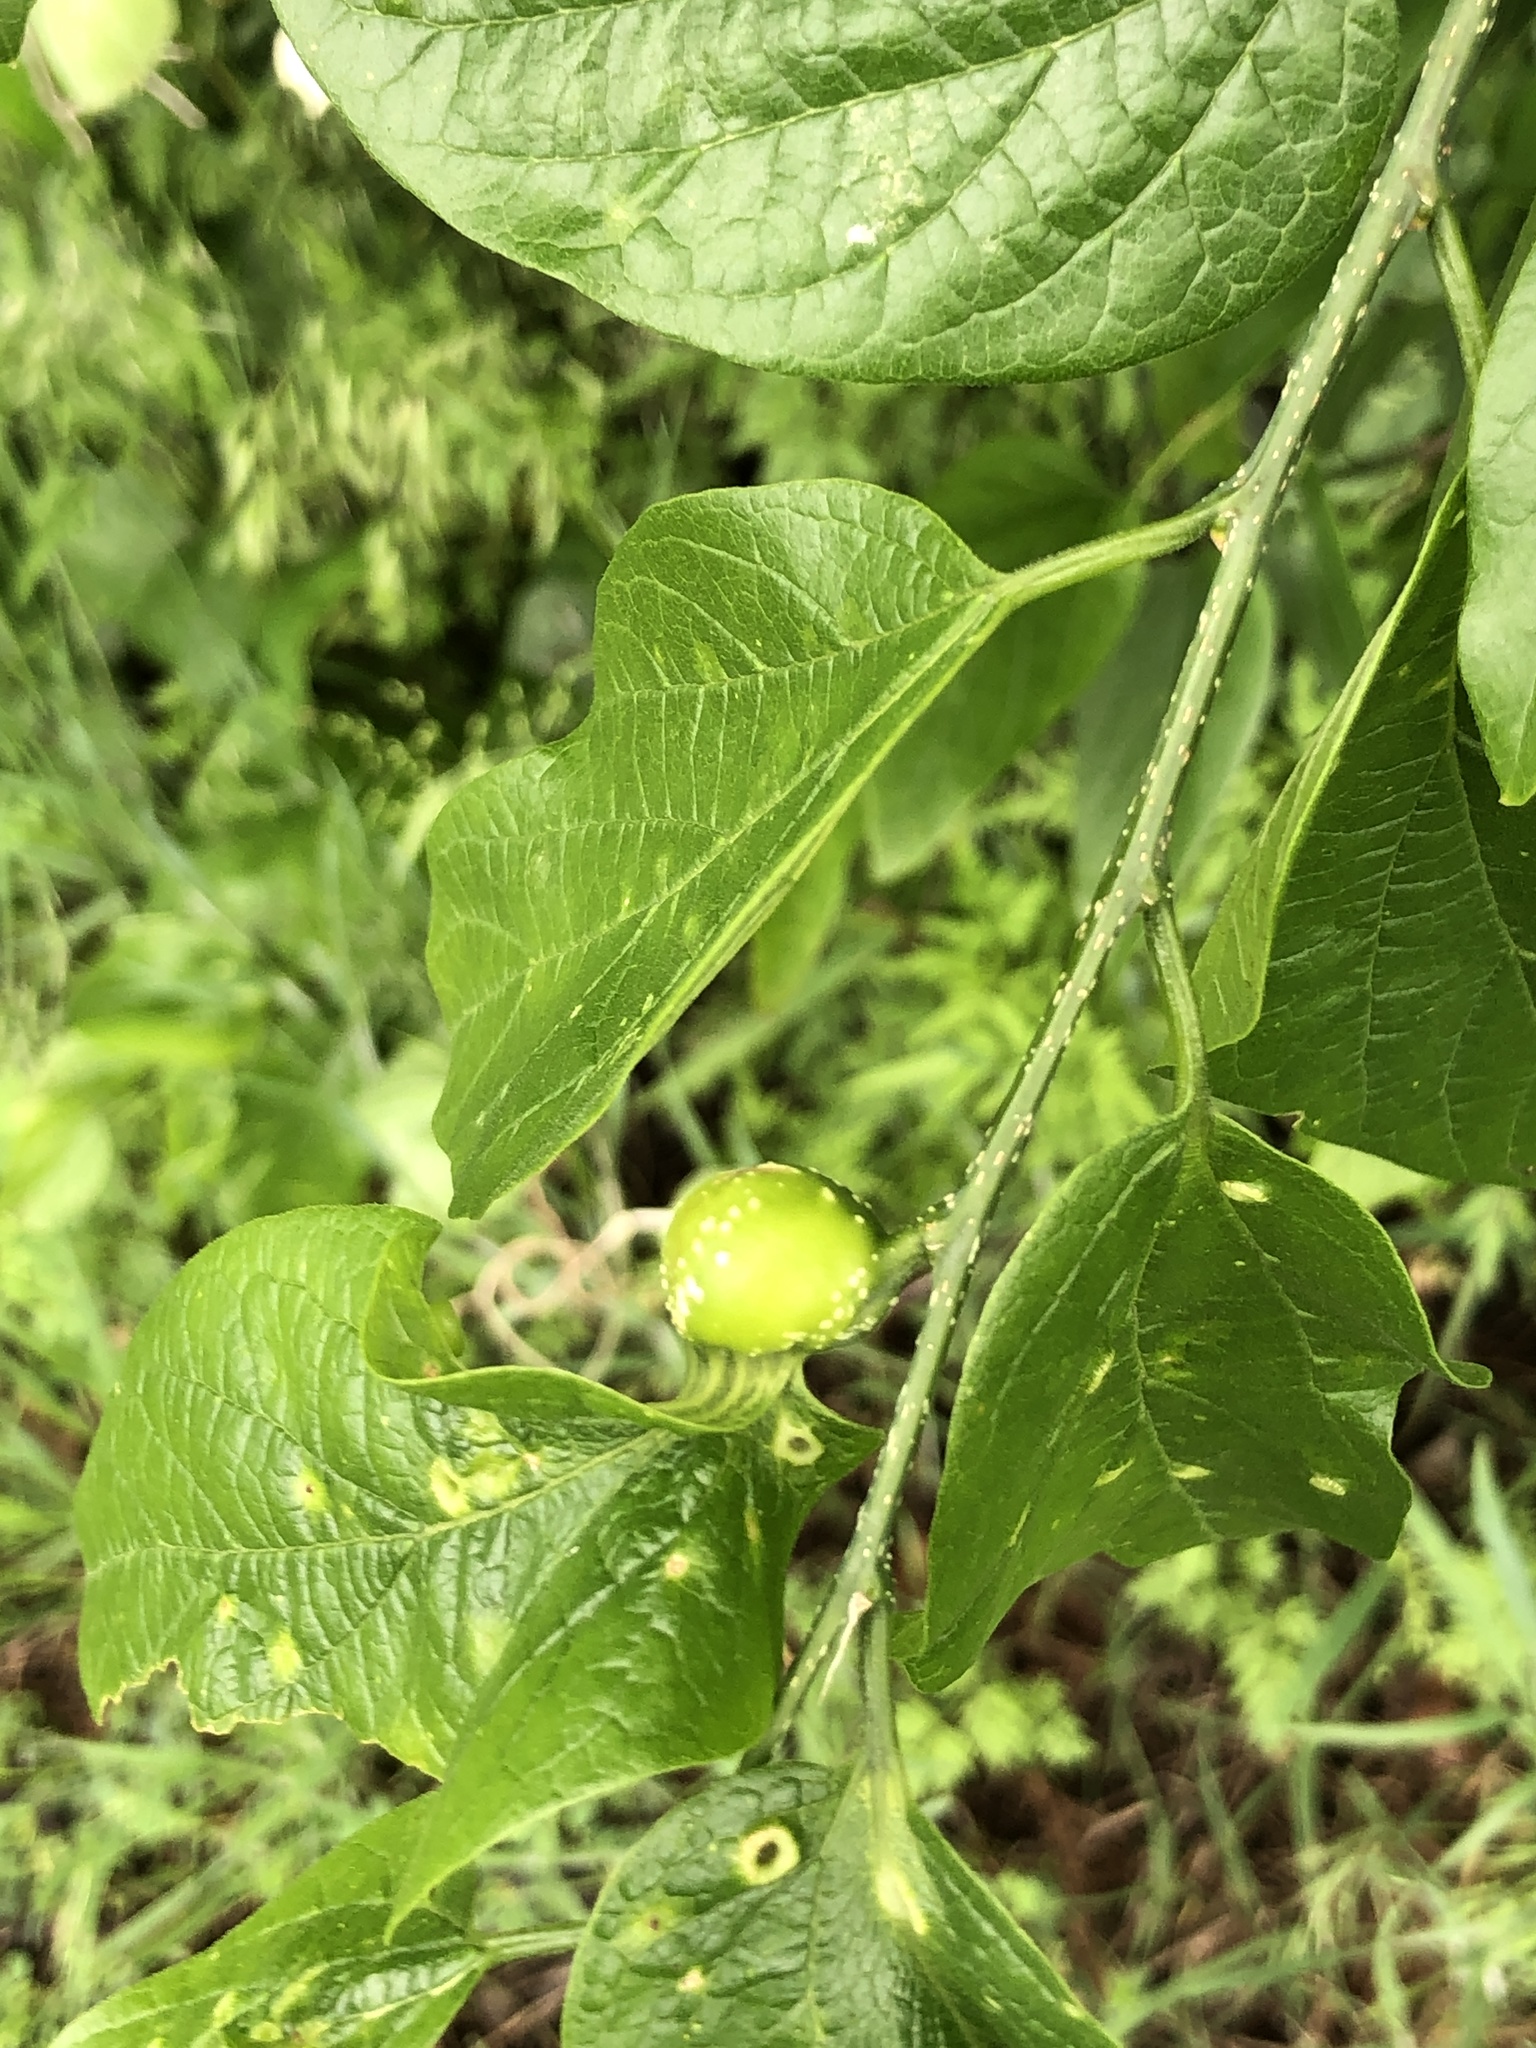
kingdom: Animalia
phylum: Arthropoda
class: Insecta
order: Hemiptera
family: Aphalaridae
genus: Pachypsylla
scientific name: Pachypsylla venusta
